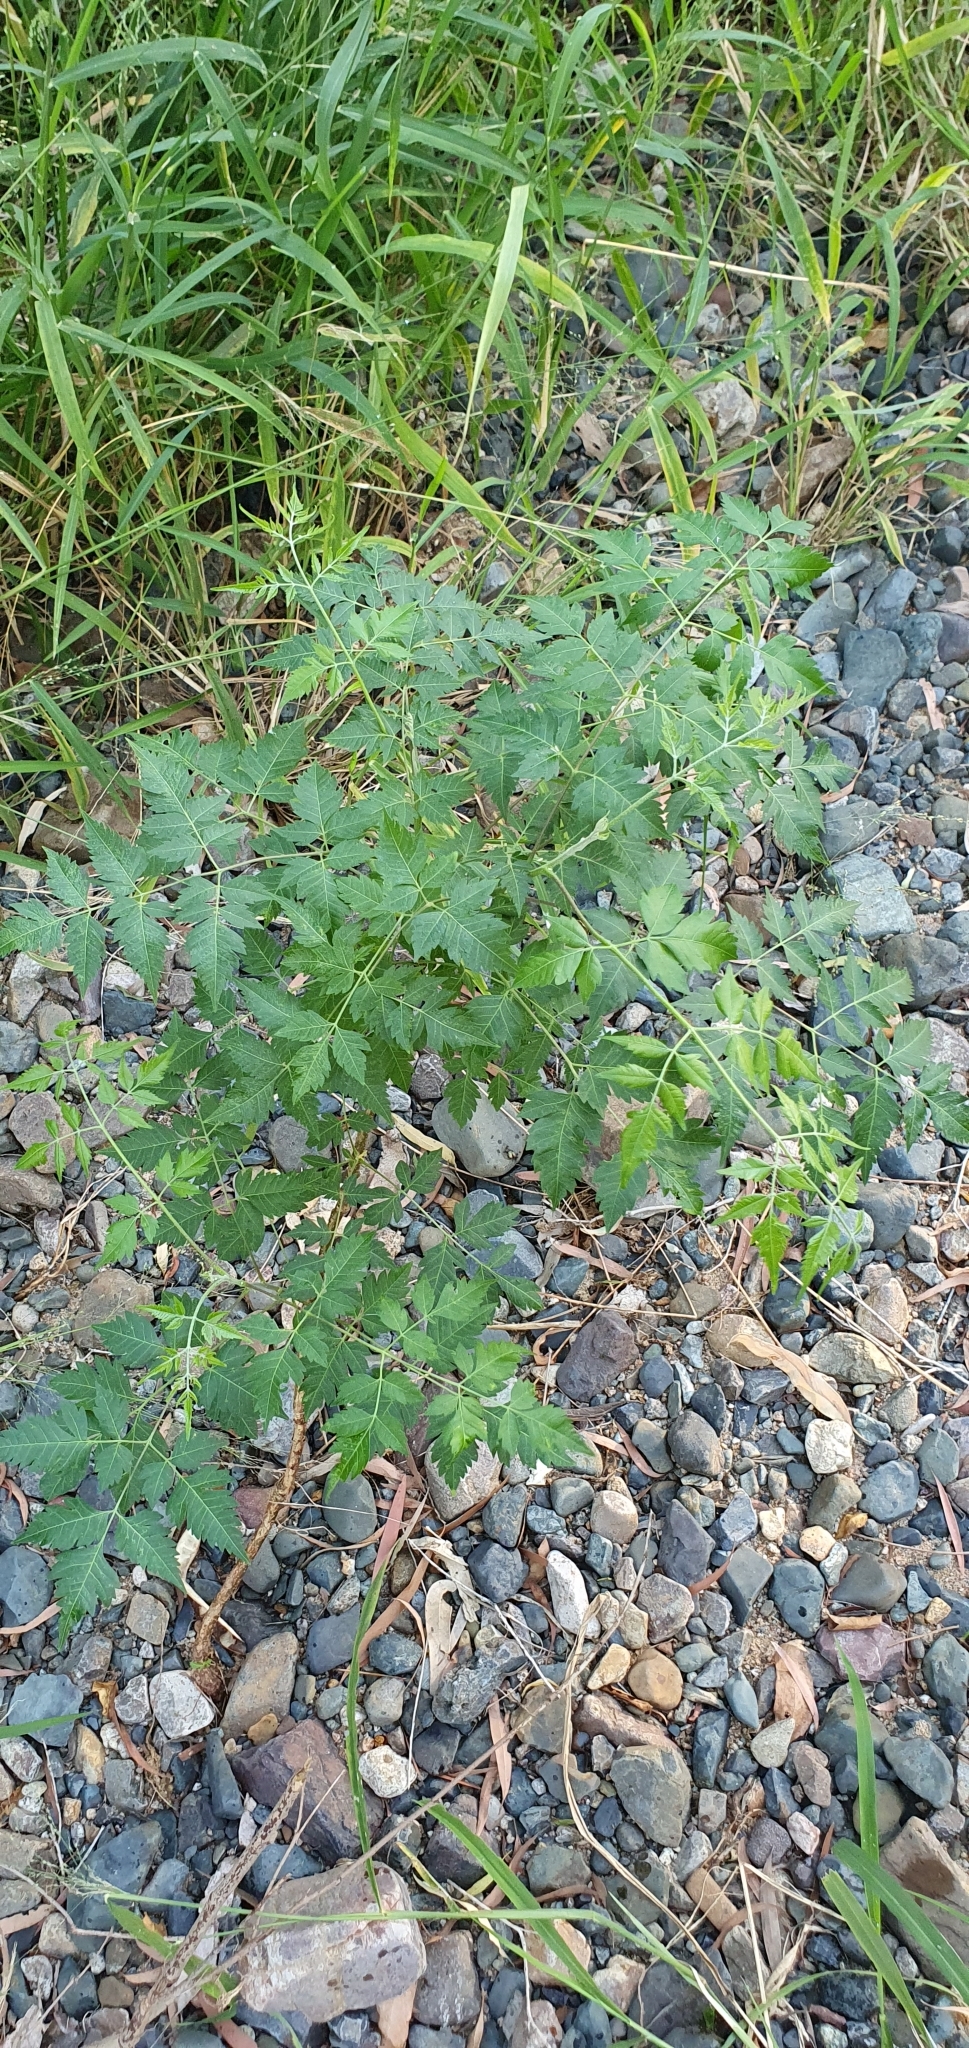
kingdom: Plantae
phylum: Tracheophyta
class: Magnoliopsida
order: Sapindales
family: Meliaceae
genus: Melia
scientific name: Melia azedarach
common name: Chinaberrytree
